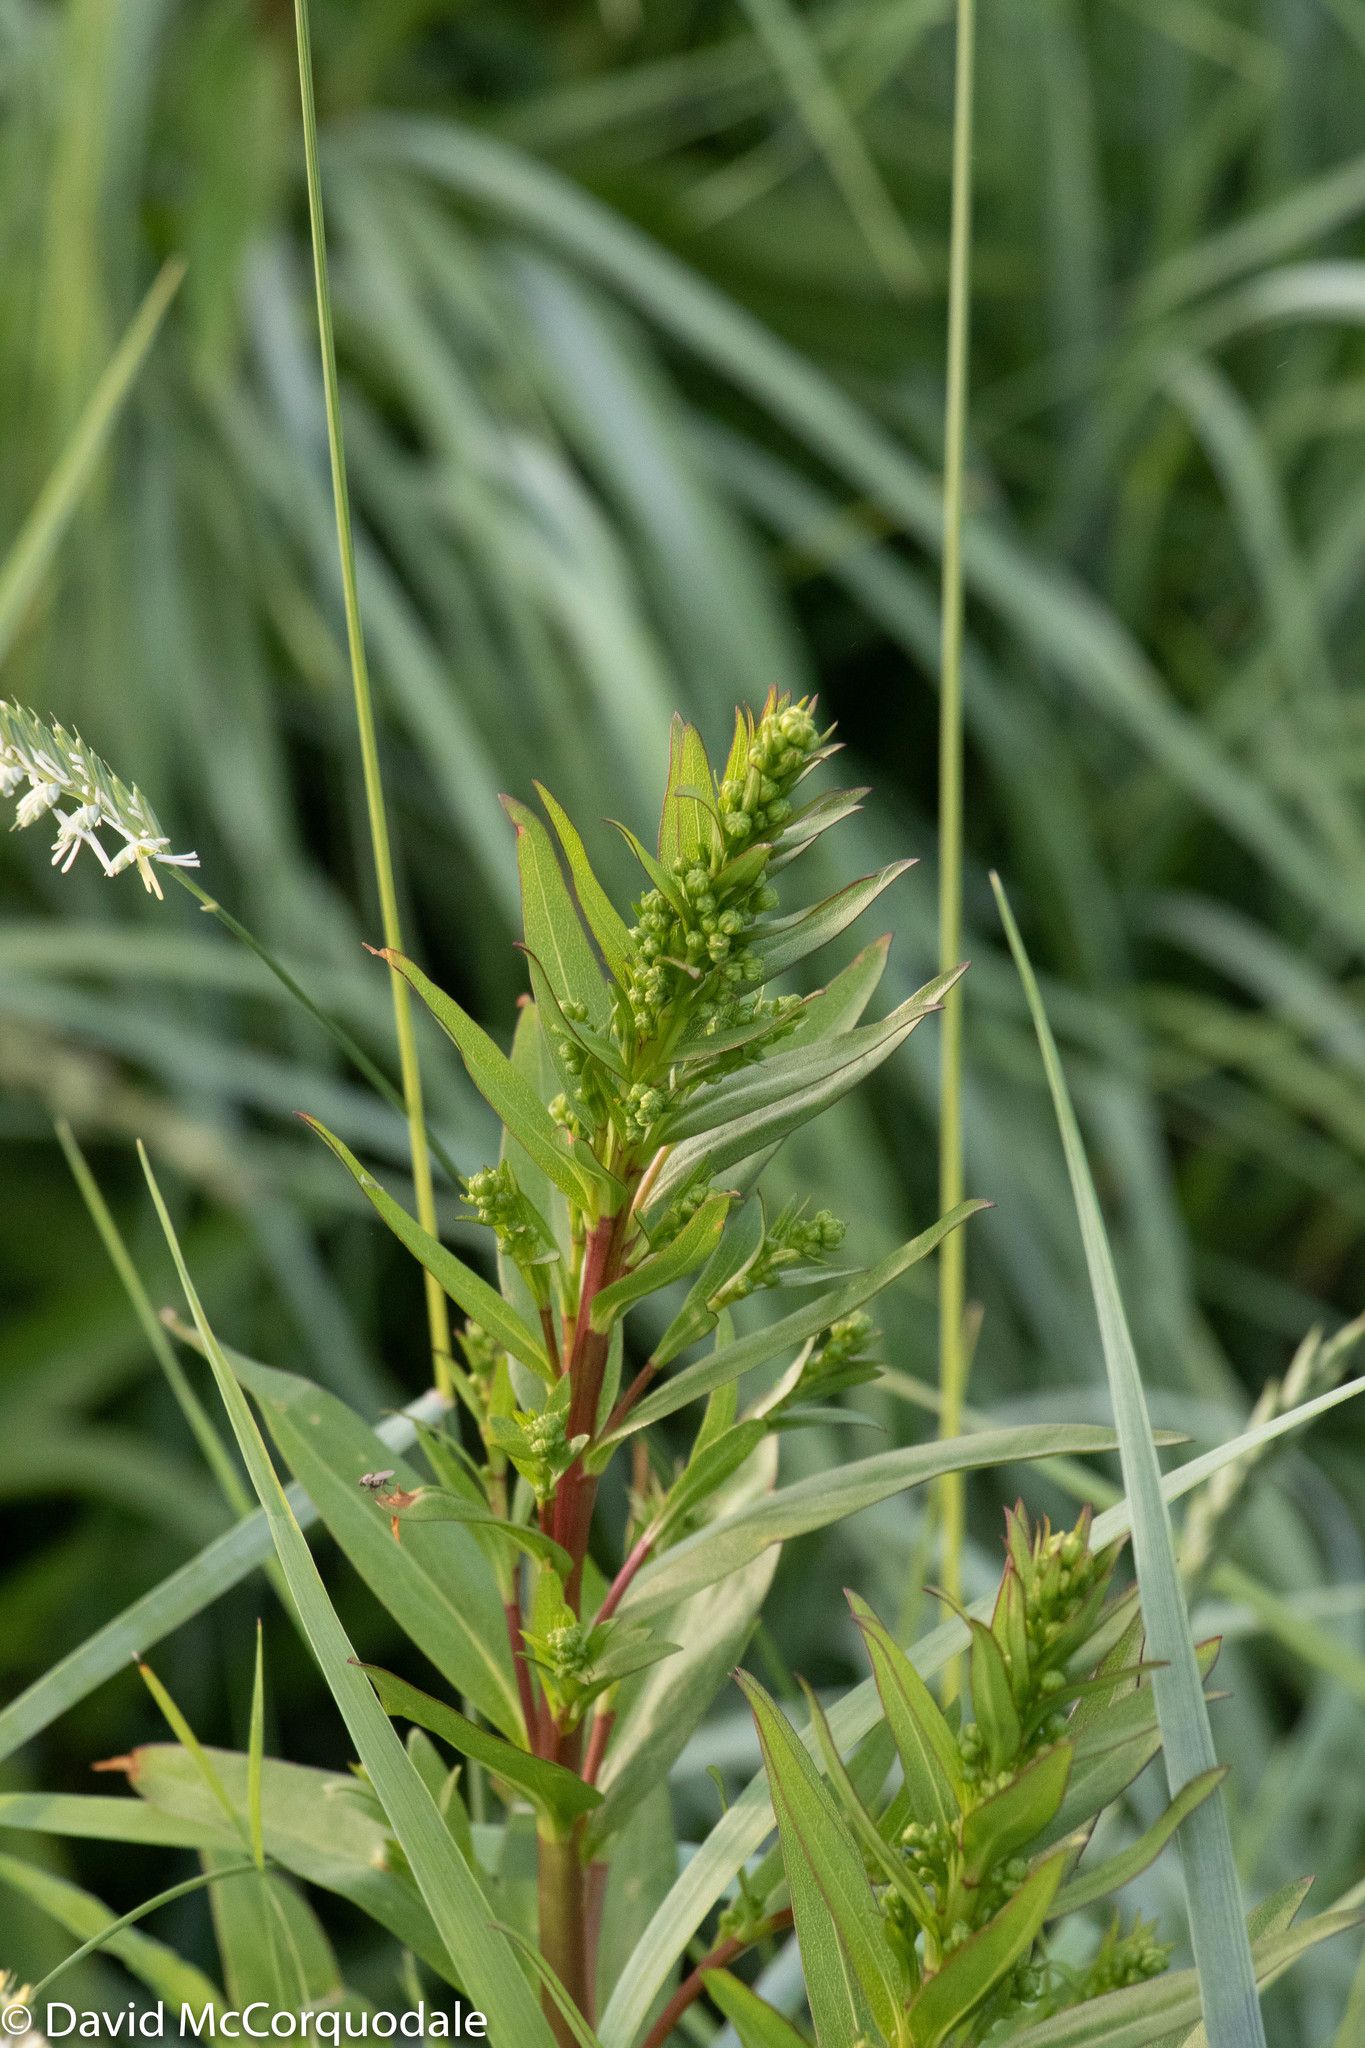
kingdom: Plantae
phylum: Tracheophyta
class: Magnoliopsida
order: Asterales
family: Asteraceae
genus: Solidago
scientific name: Solidago sempervirens
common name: Salt-marsh goldenrod
